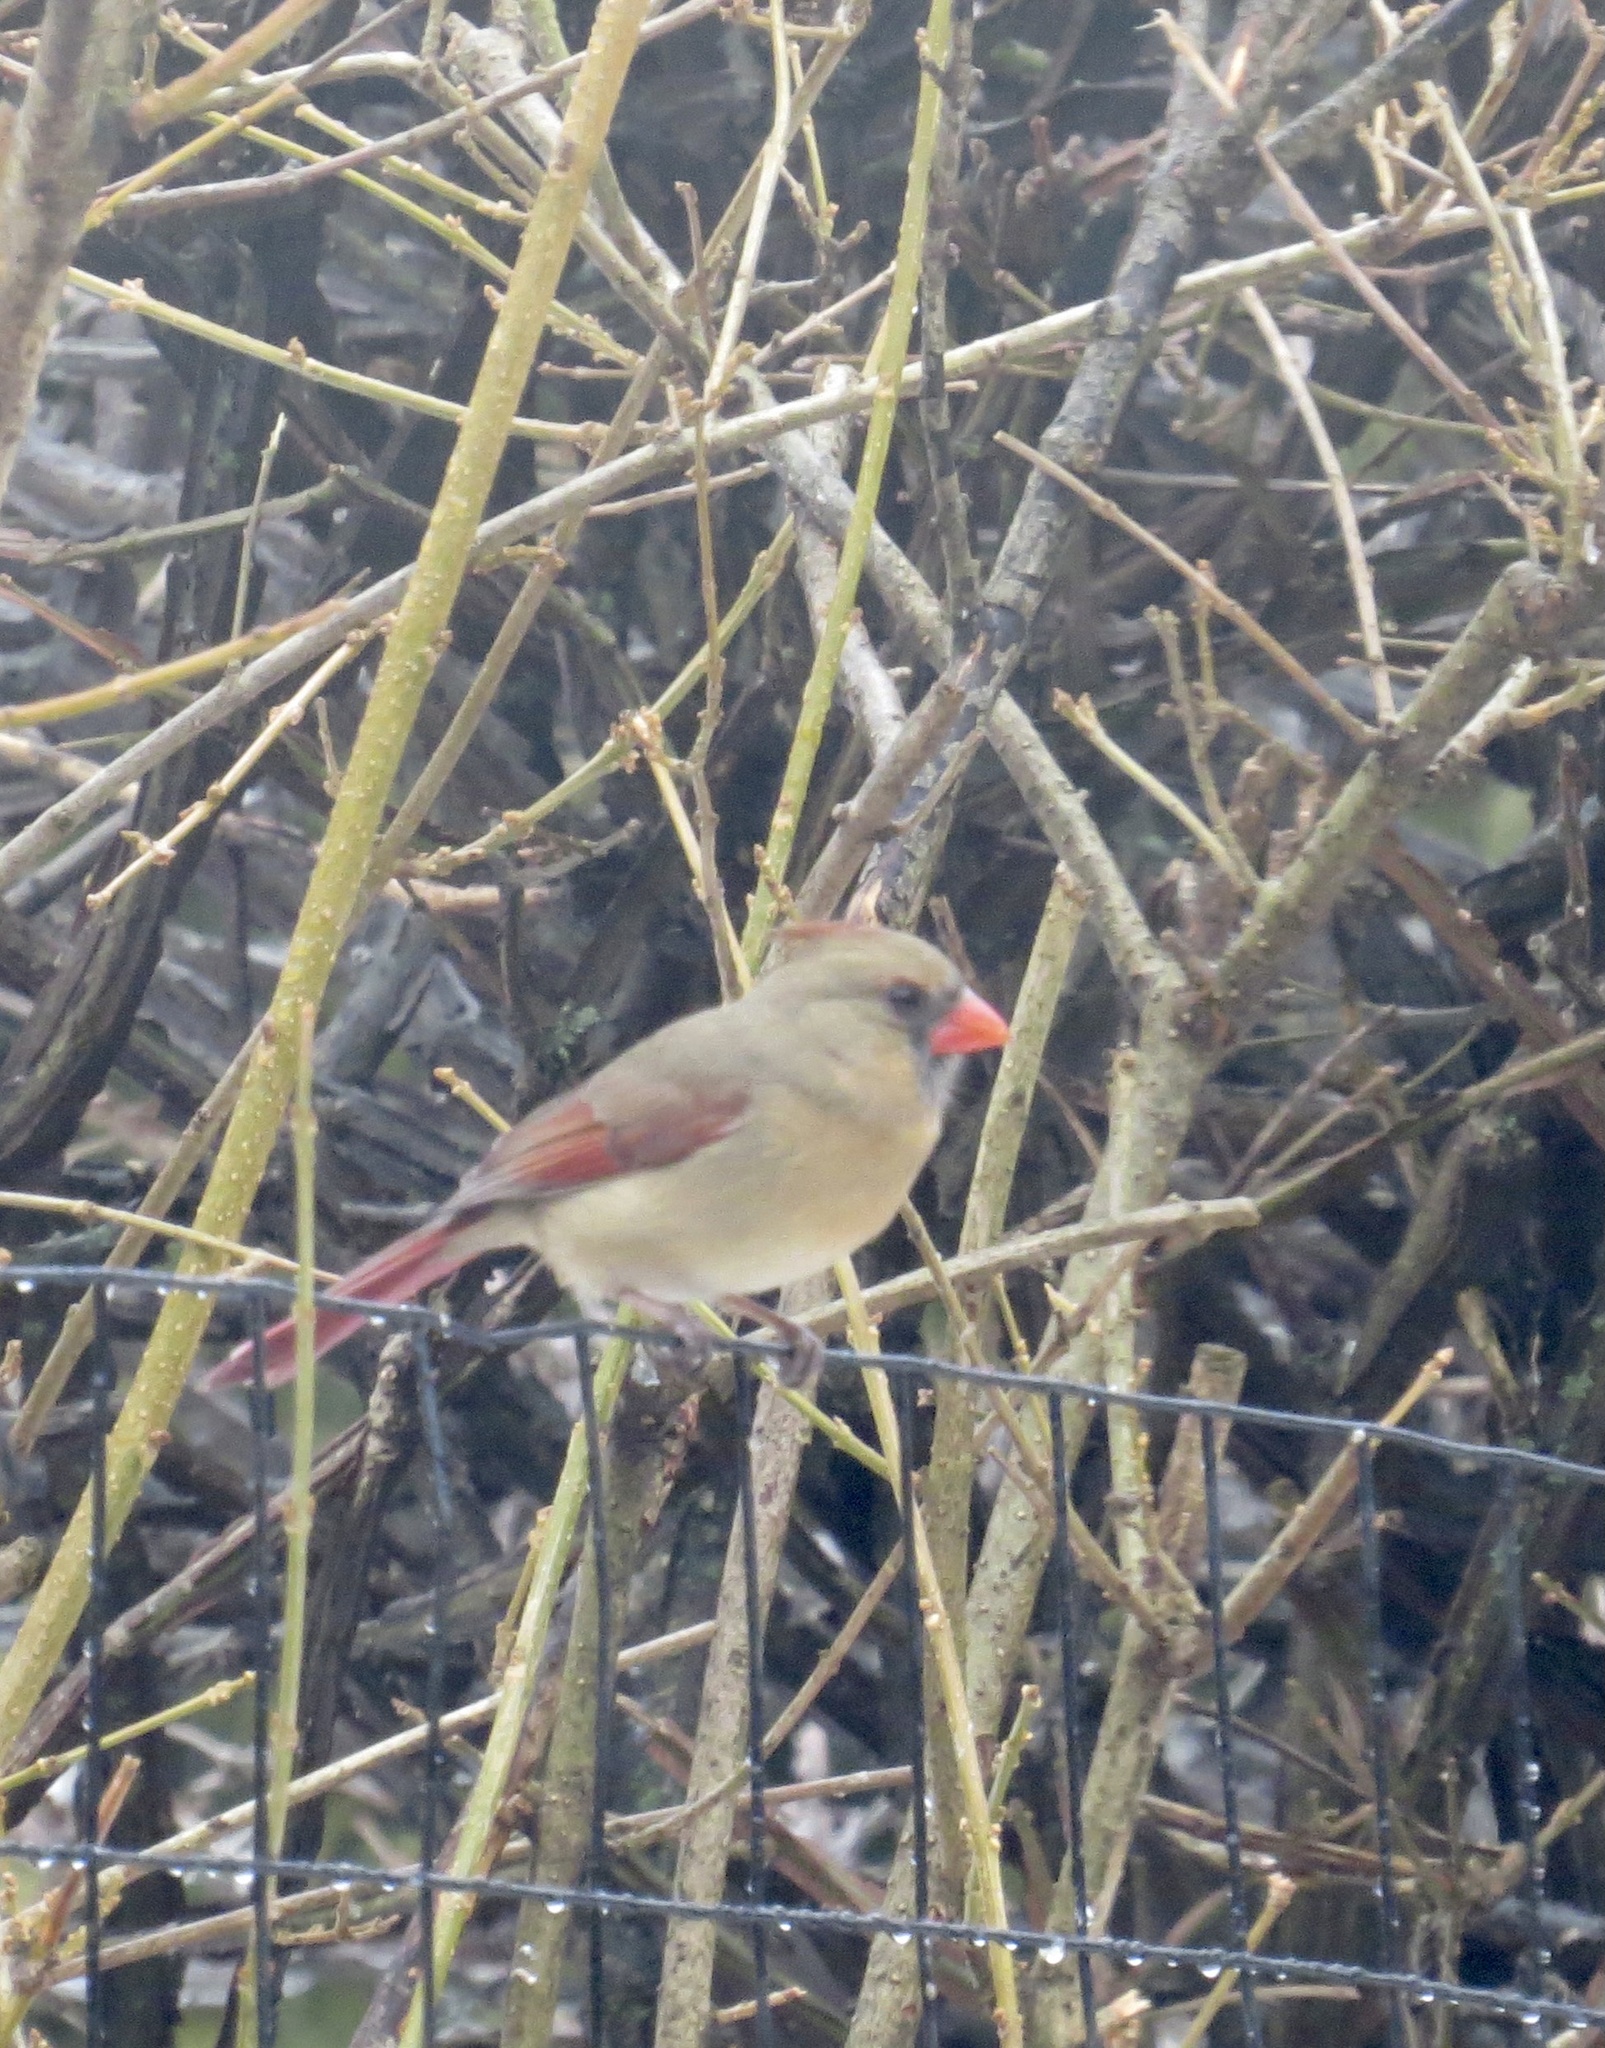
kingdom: Animalia
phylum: Chordata
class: Aves
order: Passeriformes
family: Cardinalidae
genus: Cardinalis
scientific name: Cardinalis cardinalis
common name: Northern cardinal
